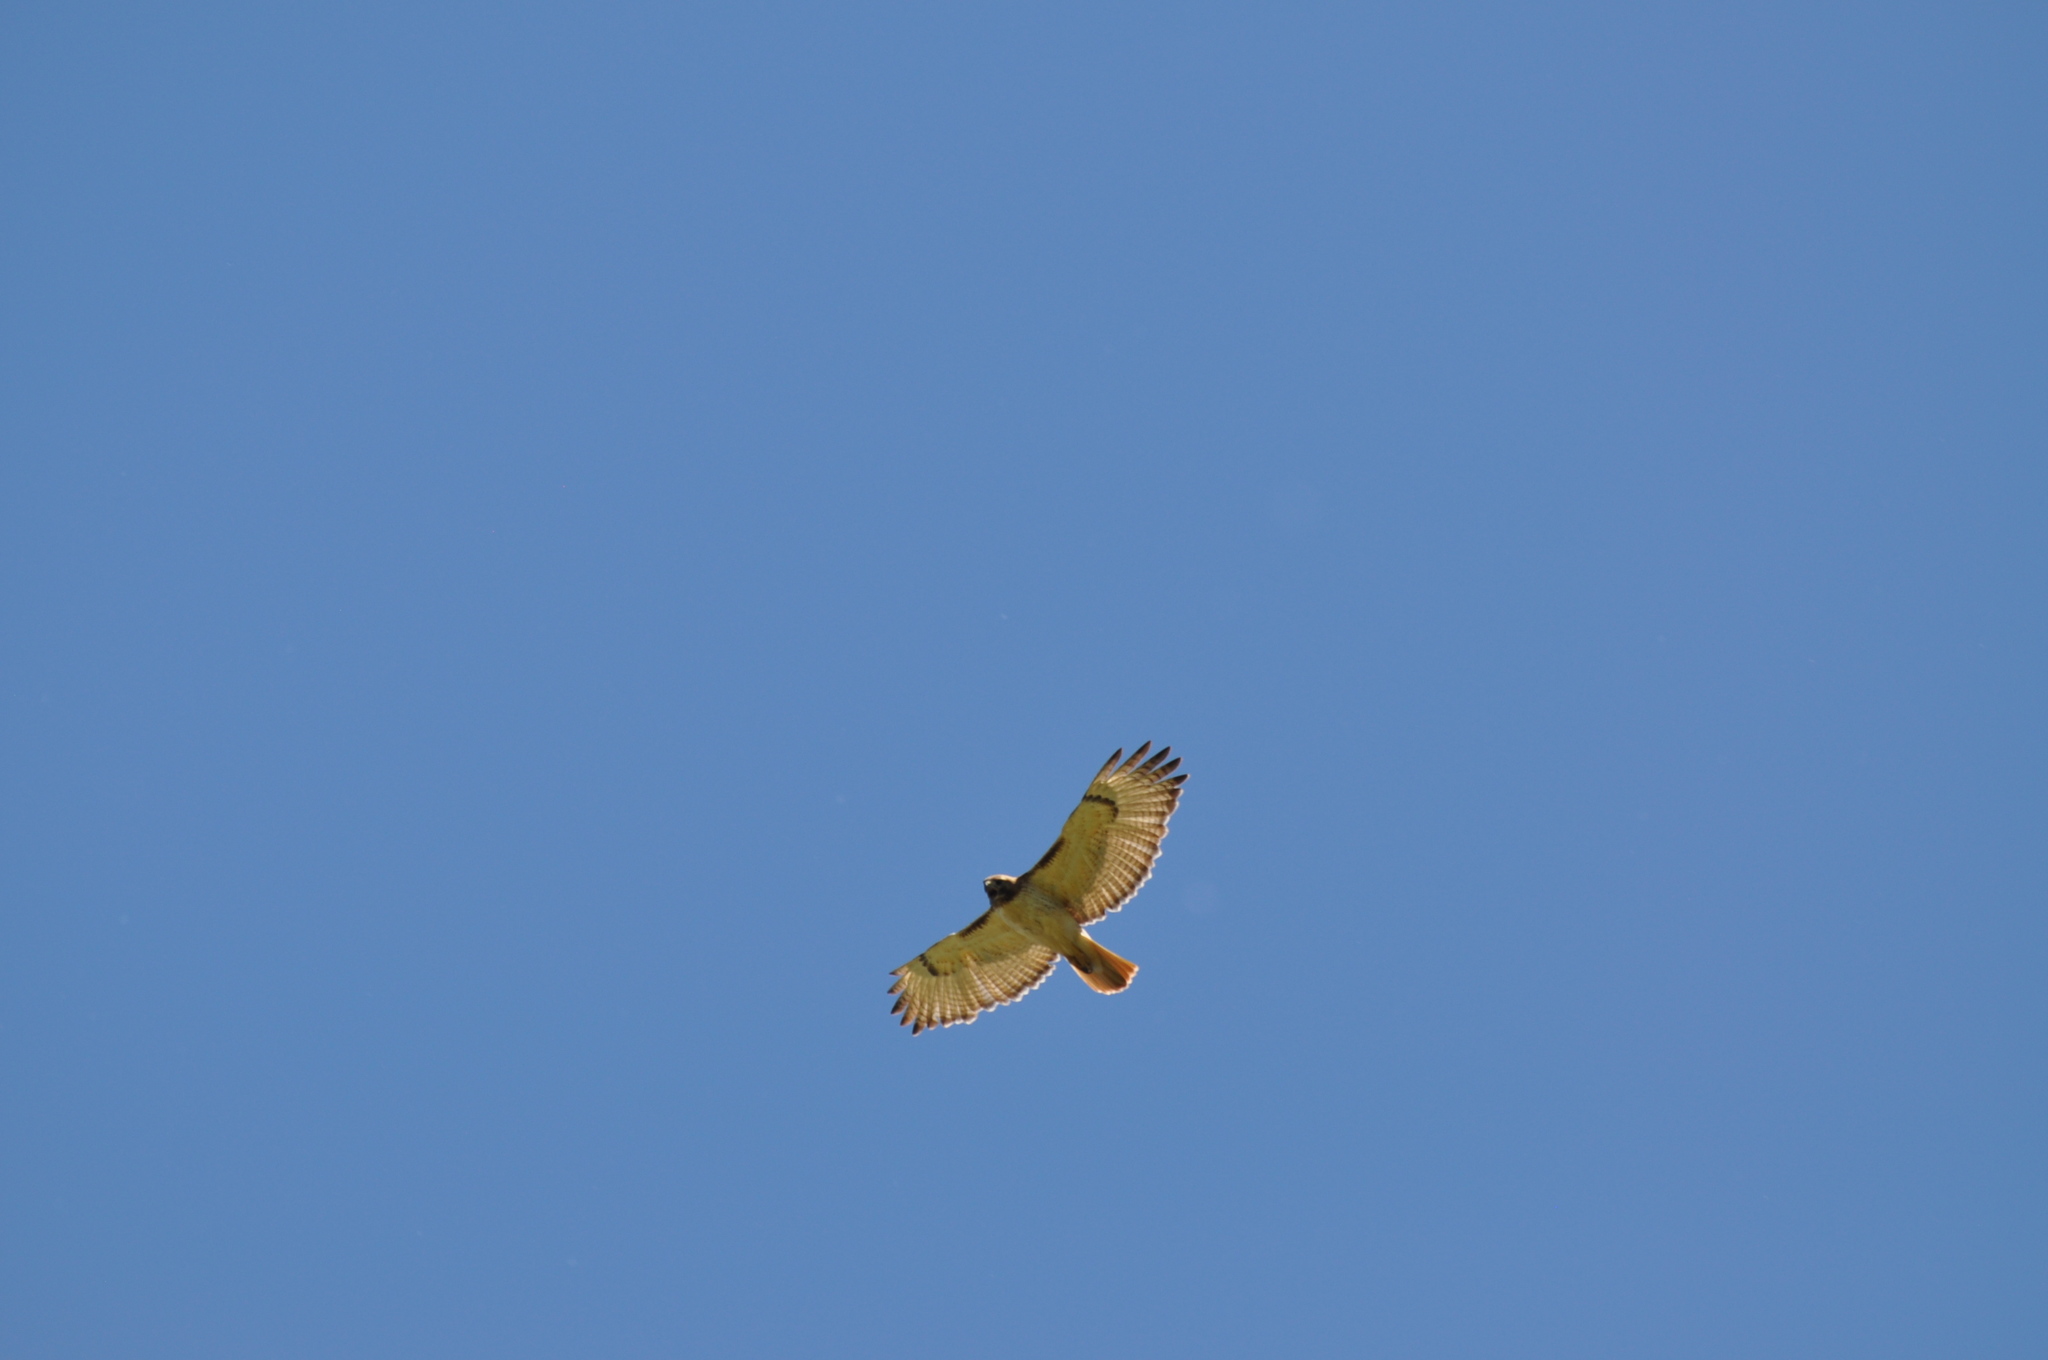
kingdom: Animalia
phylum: Chordata
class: Aves
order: Accipitriformes
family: Accipitridae
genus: Buteo
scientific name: Buteo jamaicensis
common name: Red-tailed hawk
